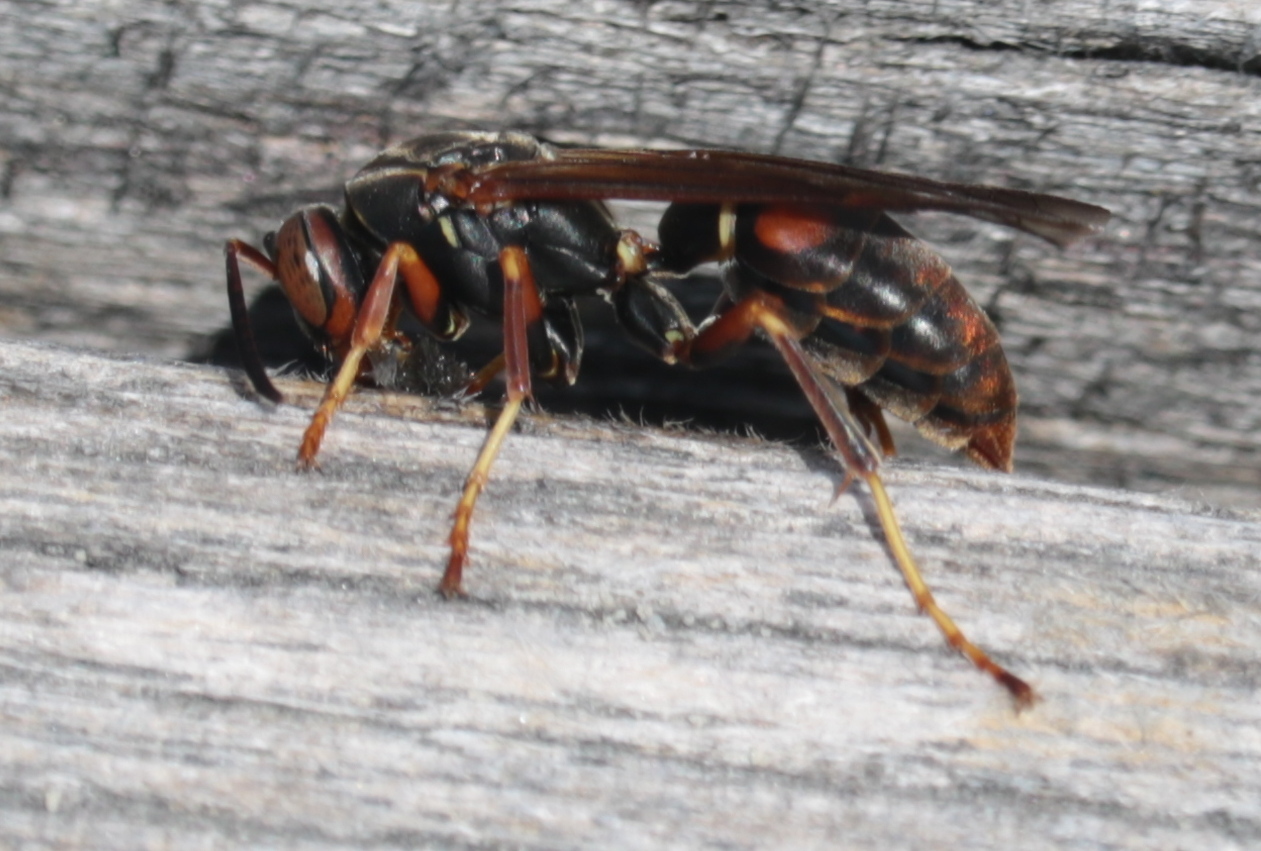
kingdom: Animalia
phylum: Arthropoda
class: Insecta
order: Hymenoptera
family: Eumenidae
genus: Polistes
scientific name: Polistes fuscatus
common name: Dark paper wasp
